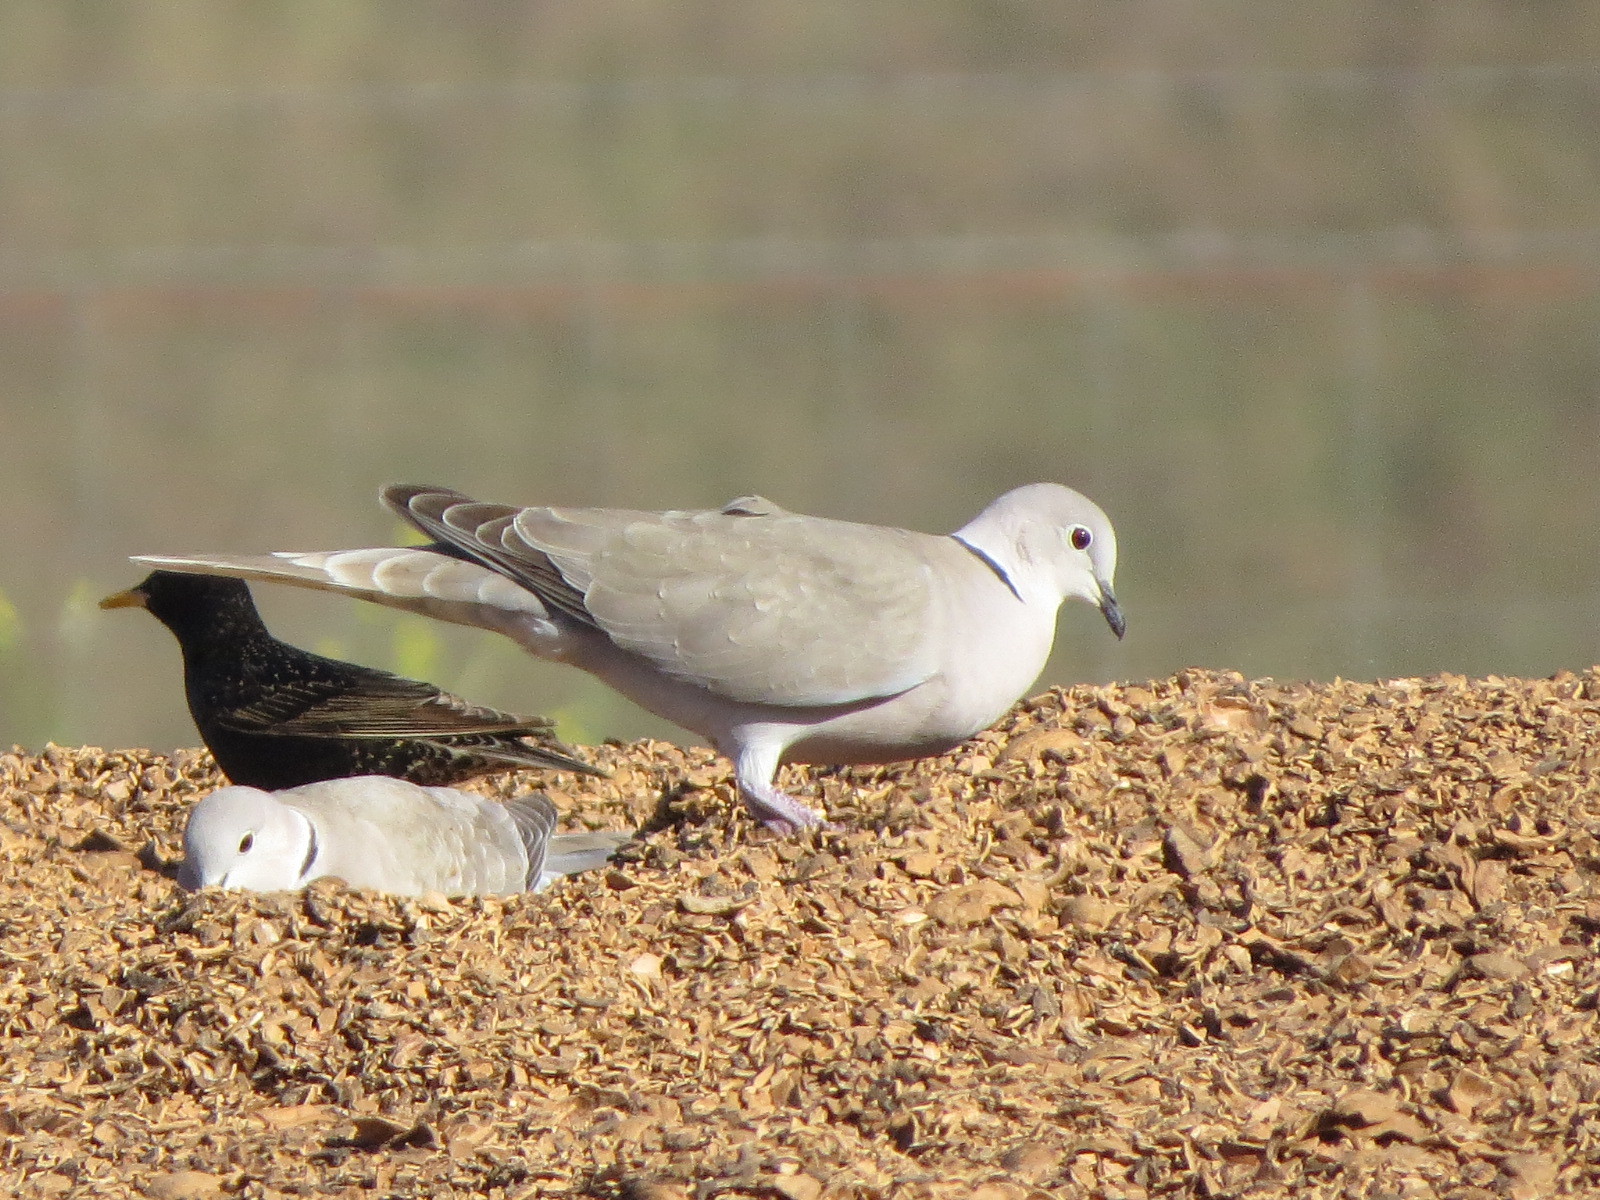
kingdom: Animalia
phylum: Chordata
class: Aves
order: Columbiformes
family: Columbidae
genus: Streptopelia
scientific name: Streptopelia decaocto
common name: Eurasian collared dove
